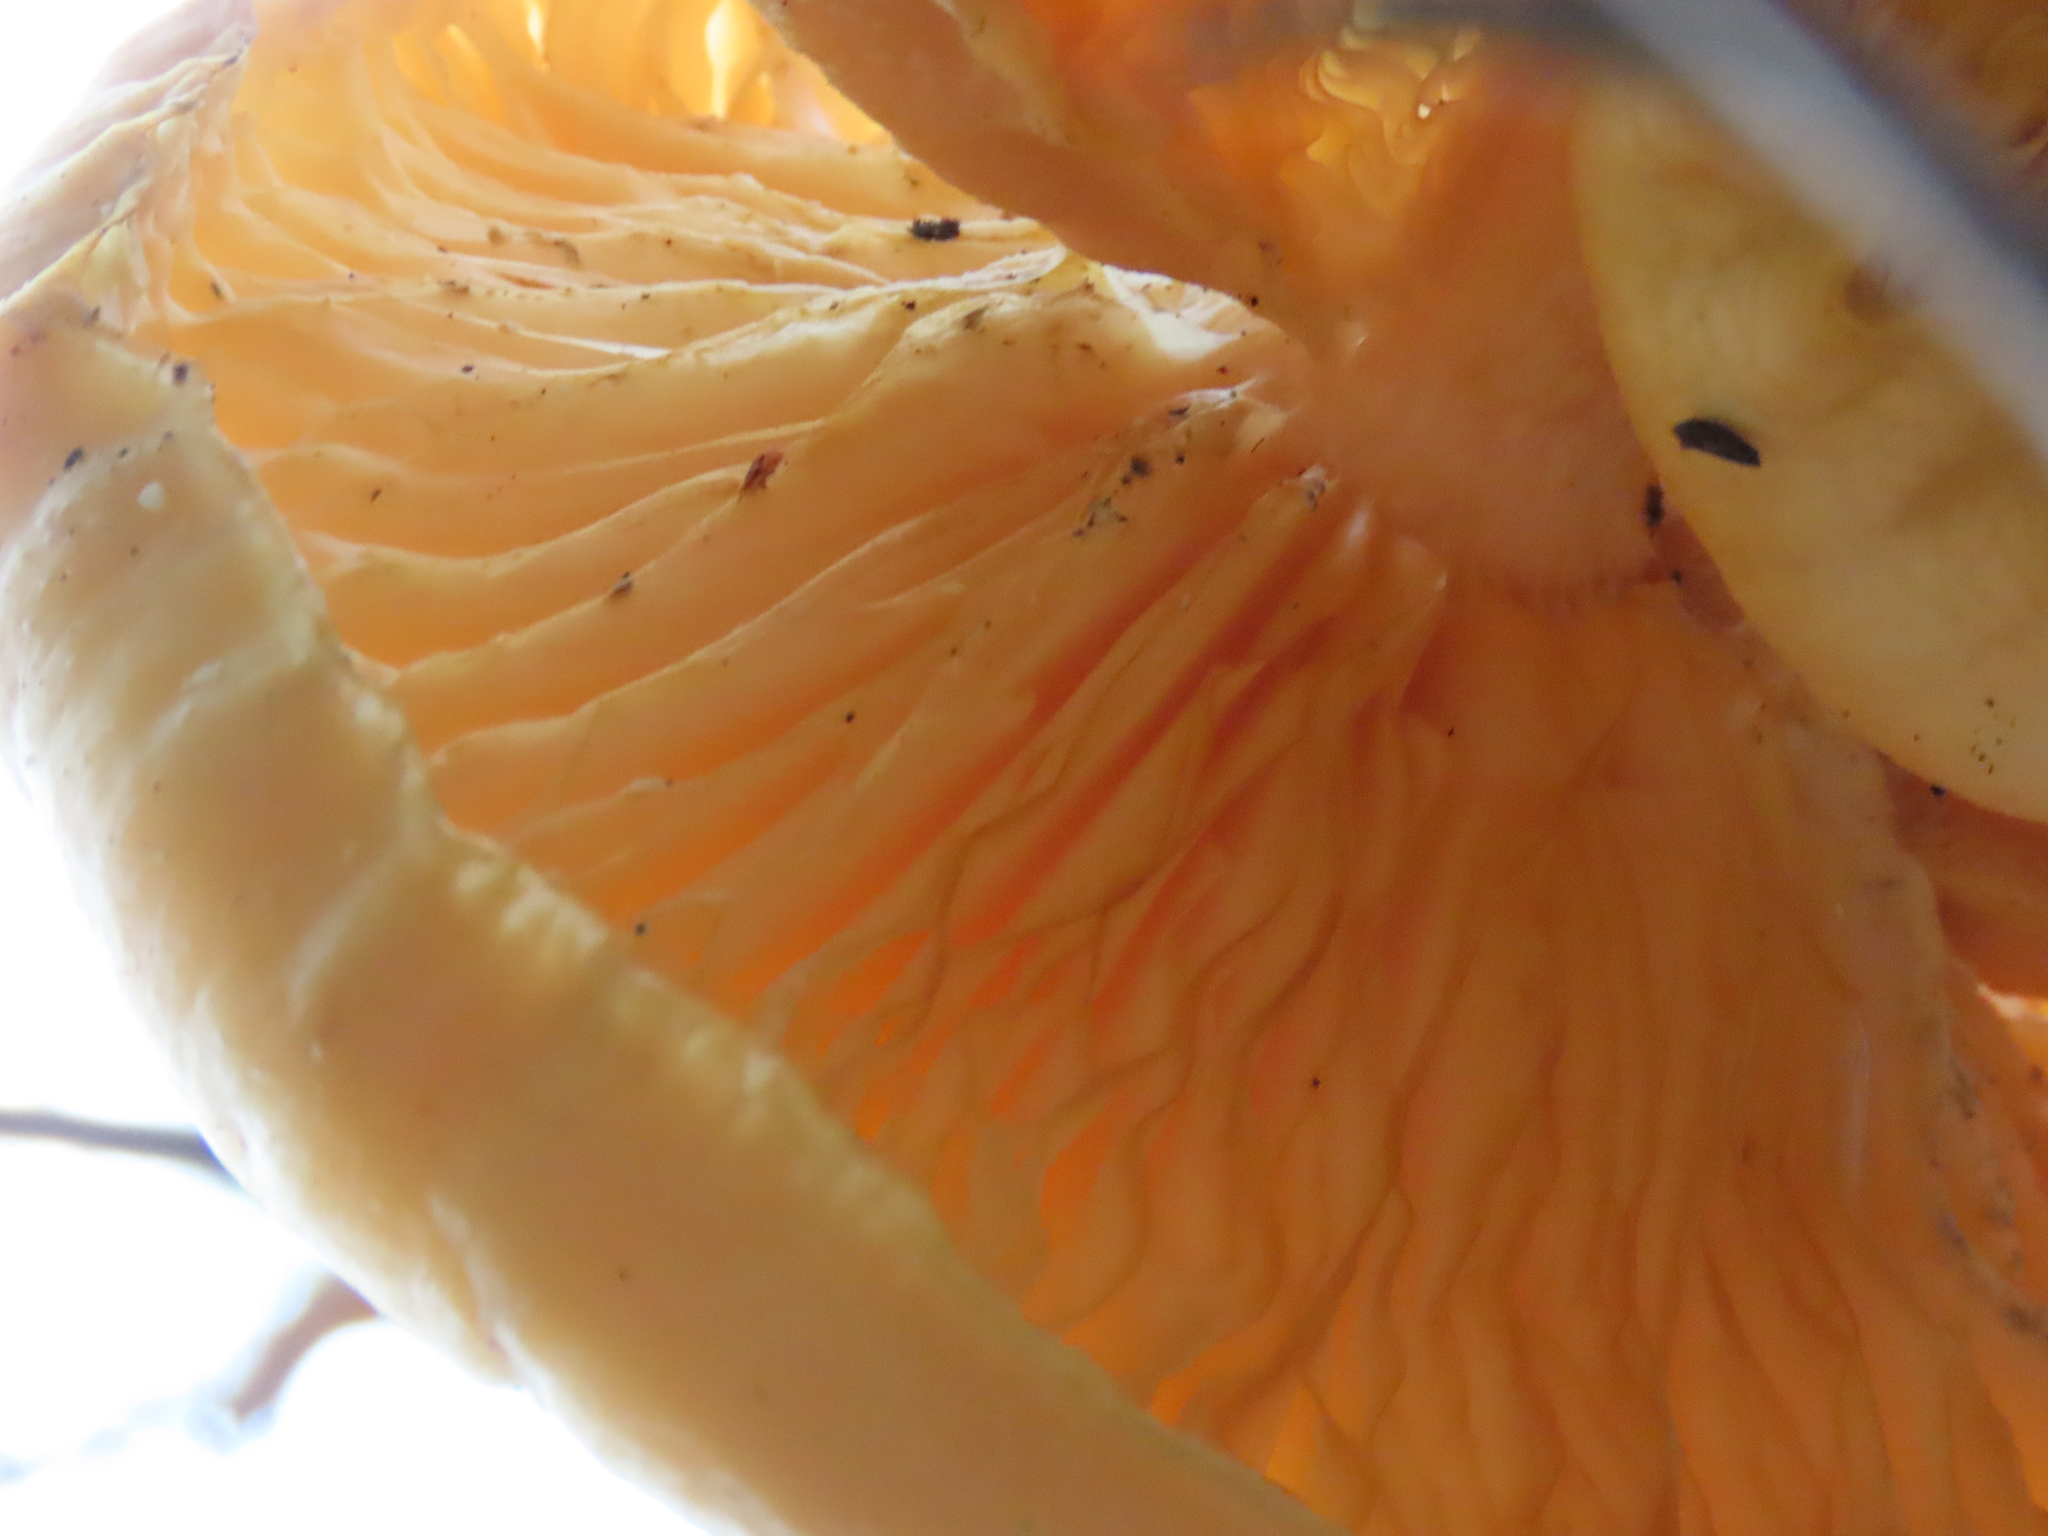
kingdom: Fungi
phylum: Basidiomycota
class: Agaricomycetes
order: Agaricales
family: Lyophyllaceae
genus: Hypsizygus
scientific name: Hypsizygus ulmarius
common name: Elm leech
